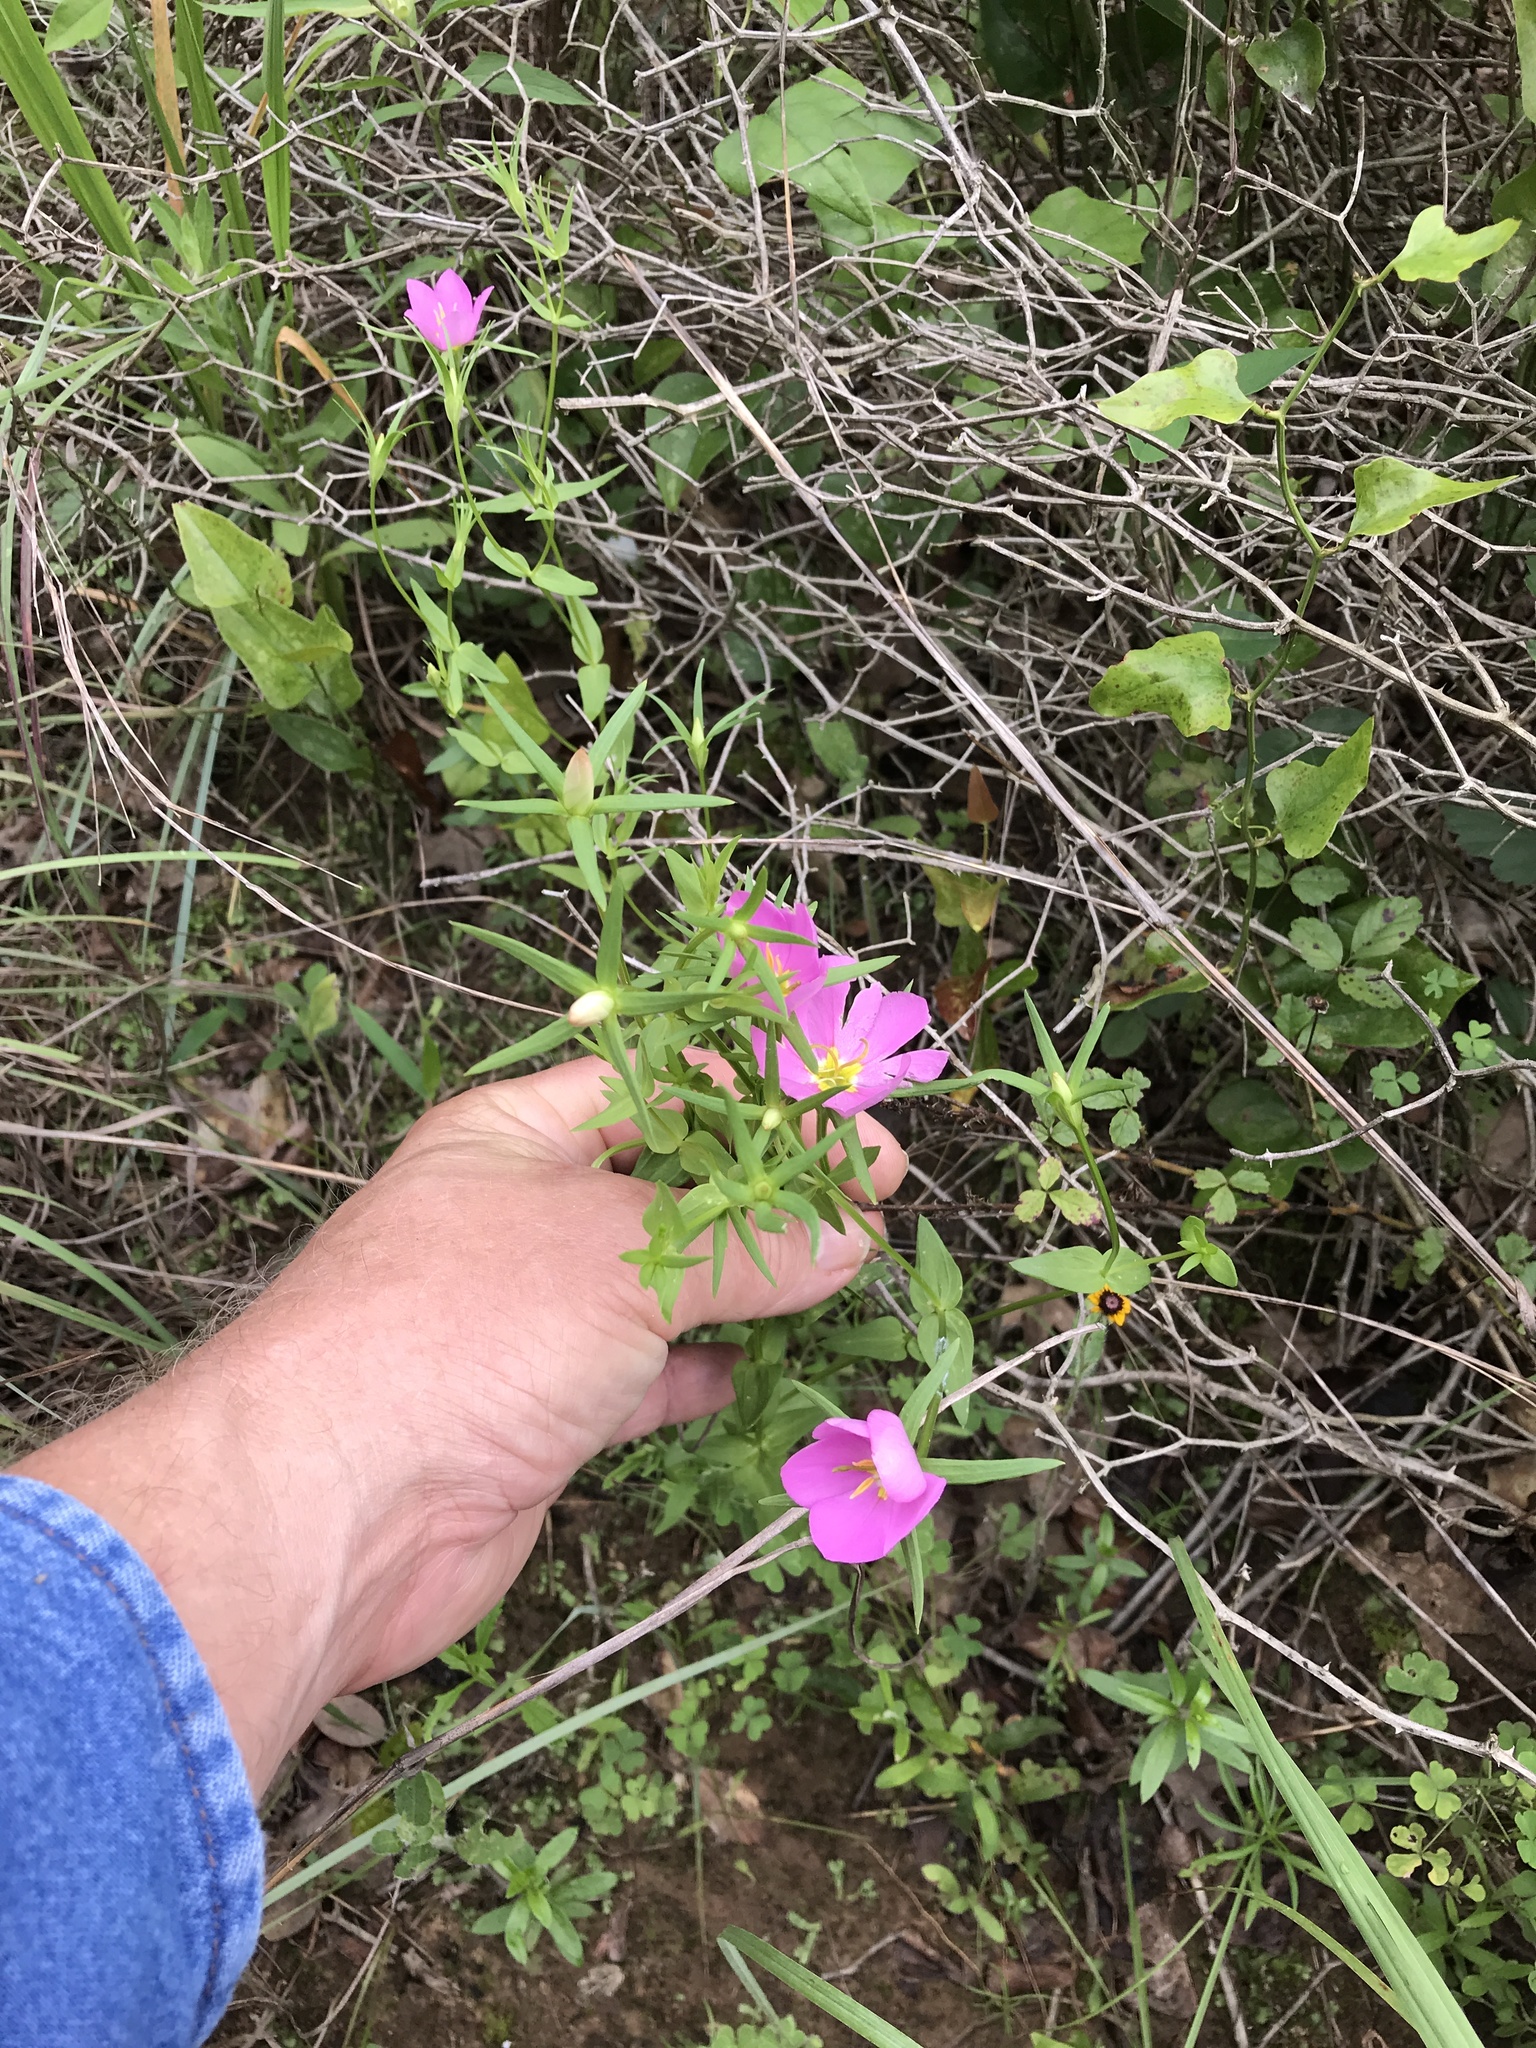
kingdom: Plantae
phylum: Tracheophyta
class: Magnoliopsida
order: Gentianales
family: Gentianaceae
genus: Sabatia
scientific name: Sabatia campestris
